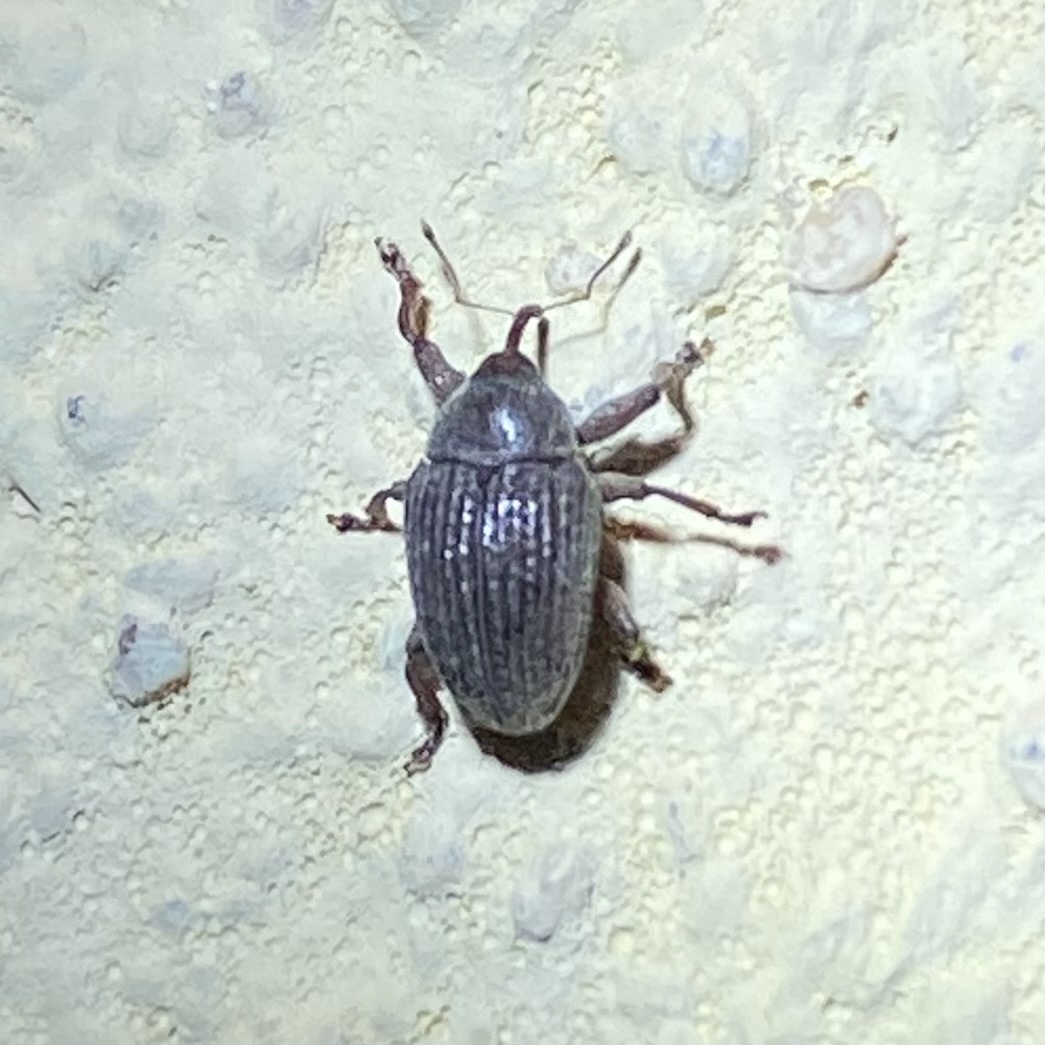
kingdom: Animalia
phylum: Arthropoda
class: Insecta
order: Coleoptera
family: Curculionidae
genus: Rhyssomatus
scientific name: Rhyssomatus
